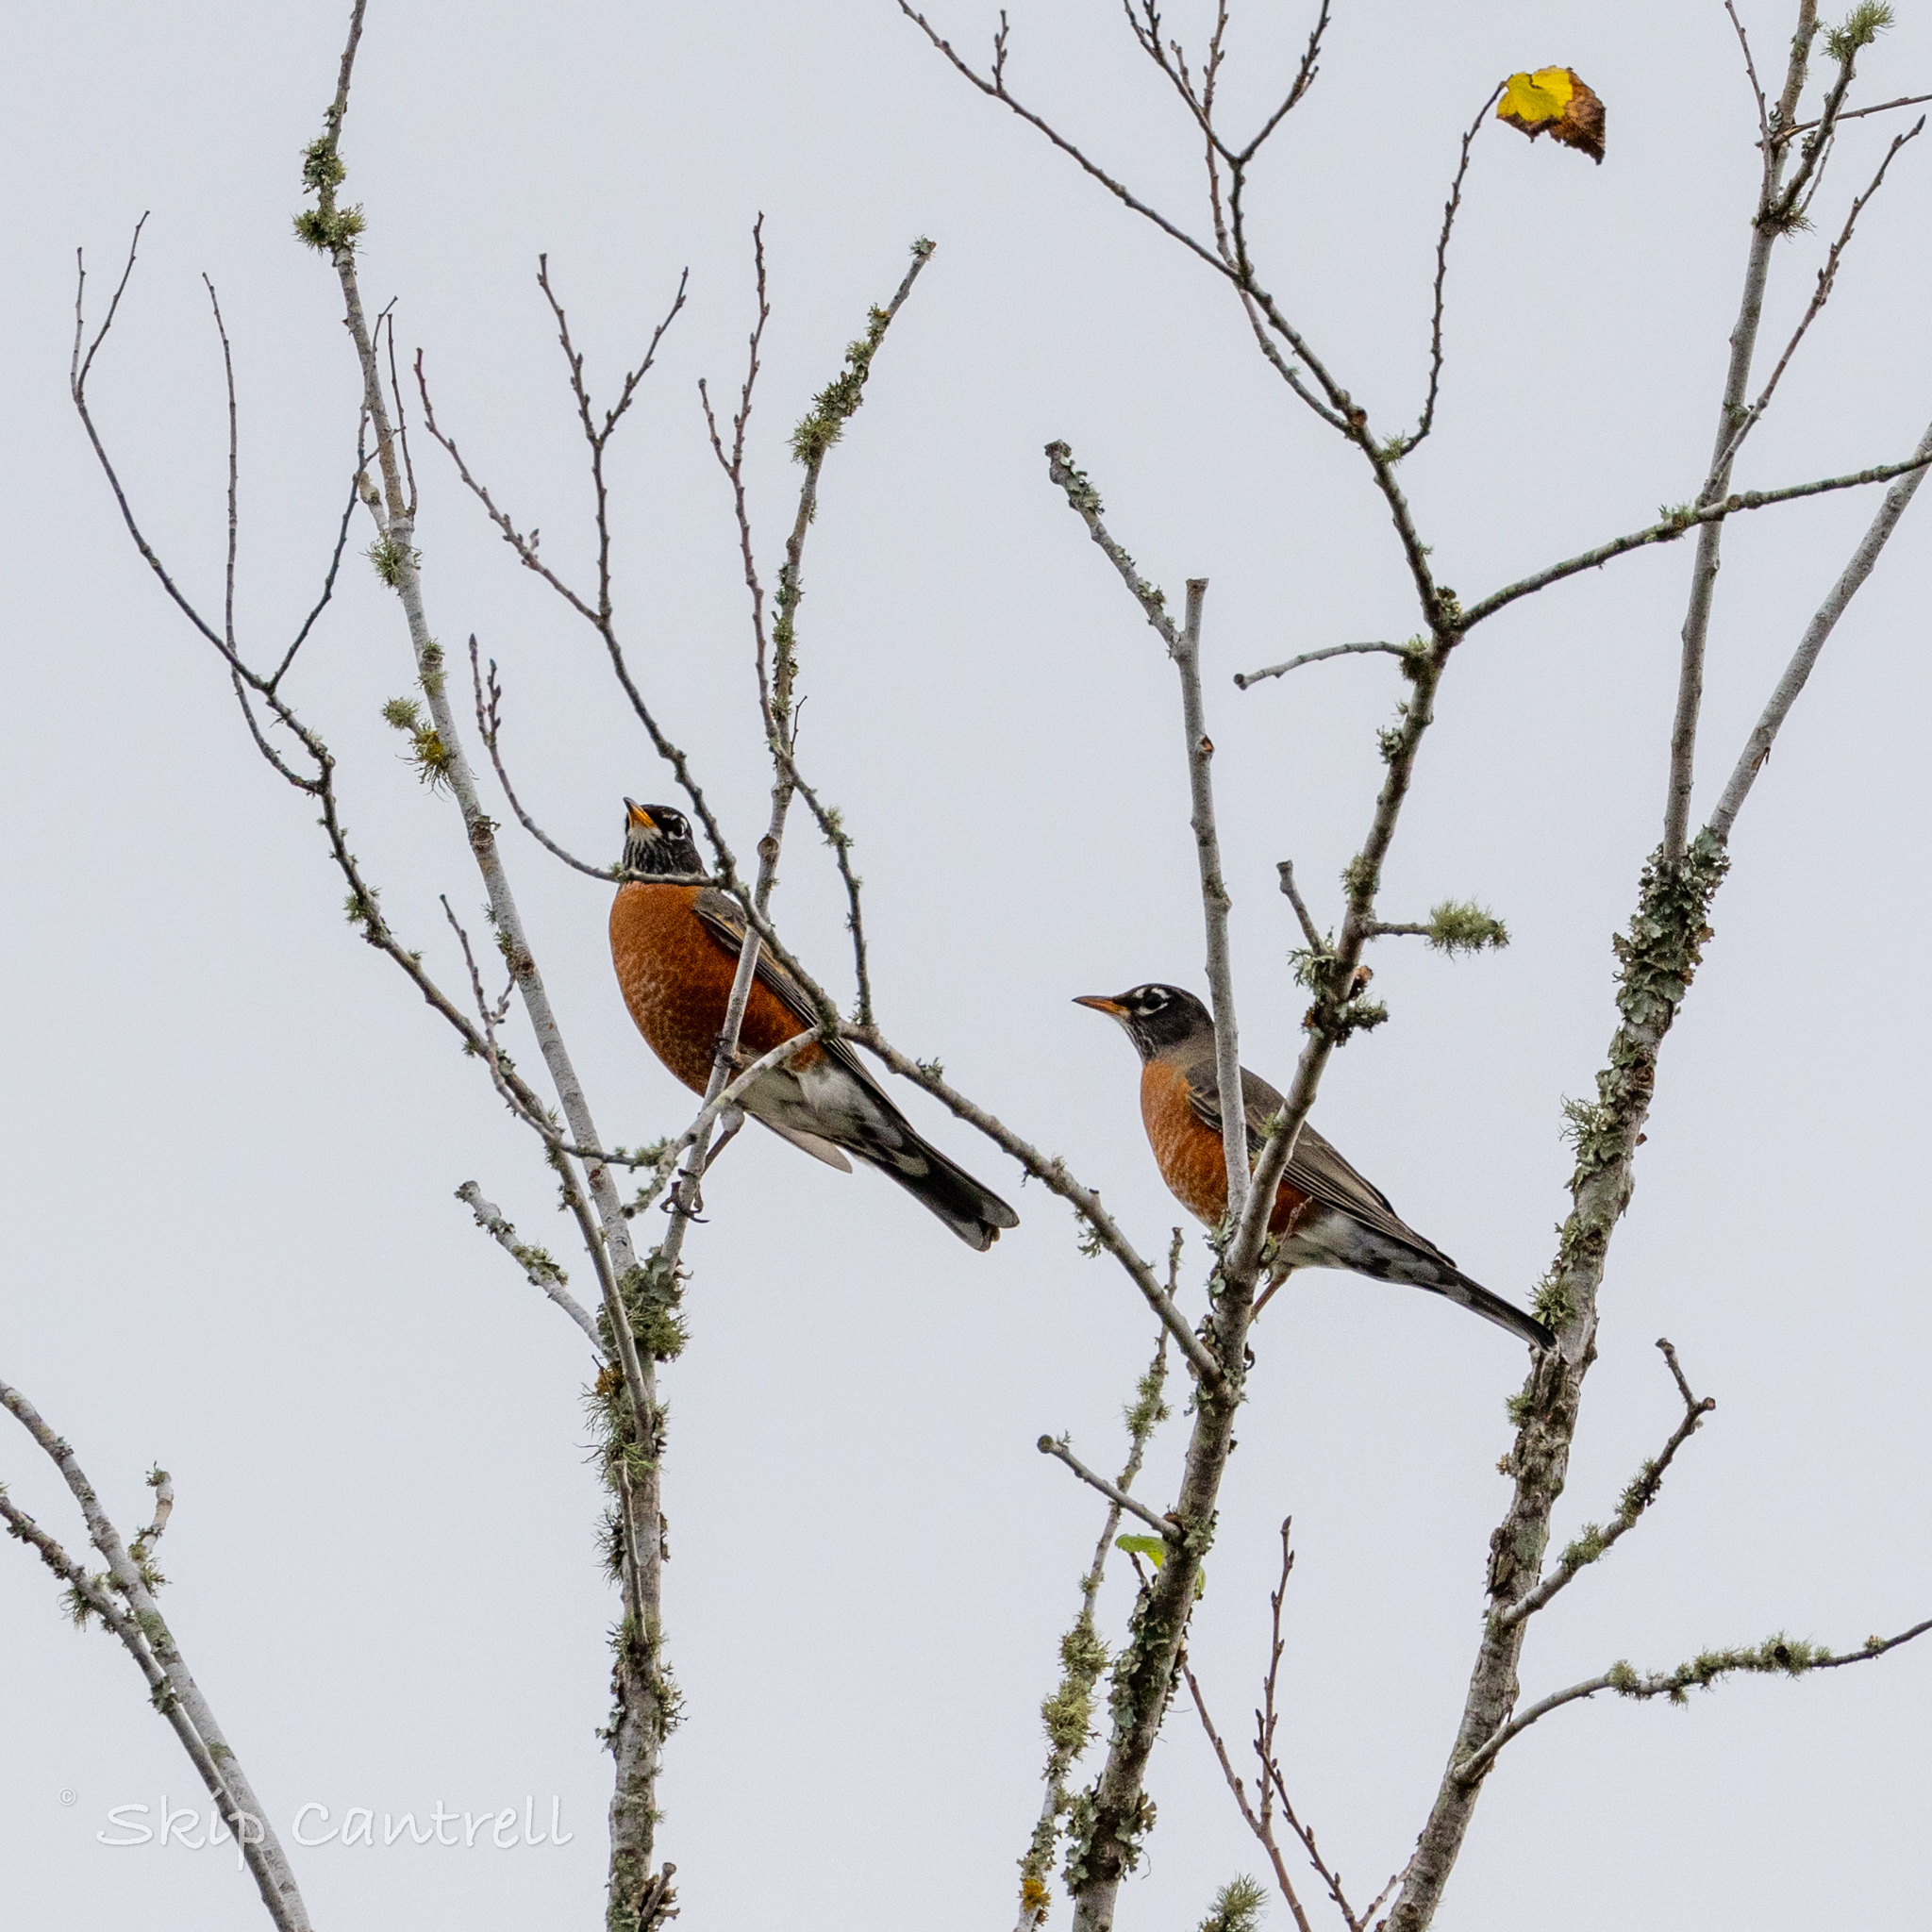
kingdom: Animalia
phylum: Chordata
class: Aves
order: Passeriformes
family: Turdidae
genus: Turdus
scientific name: Turdus migratorius
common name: American robin
